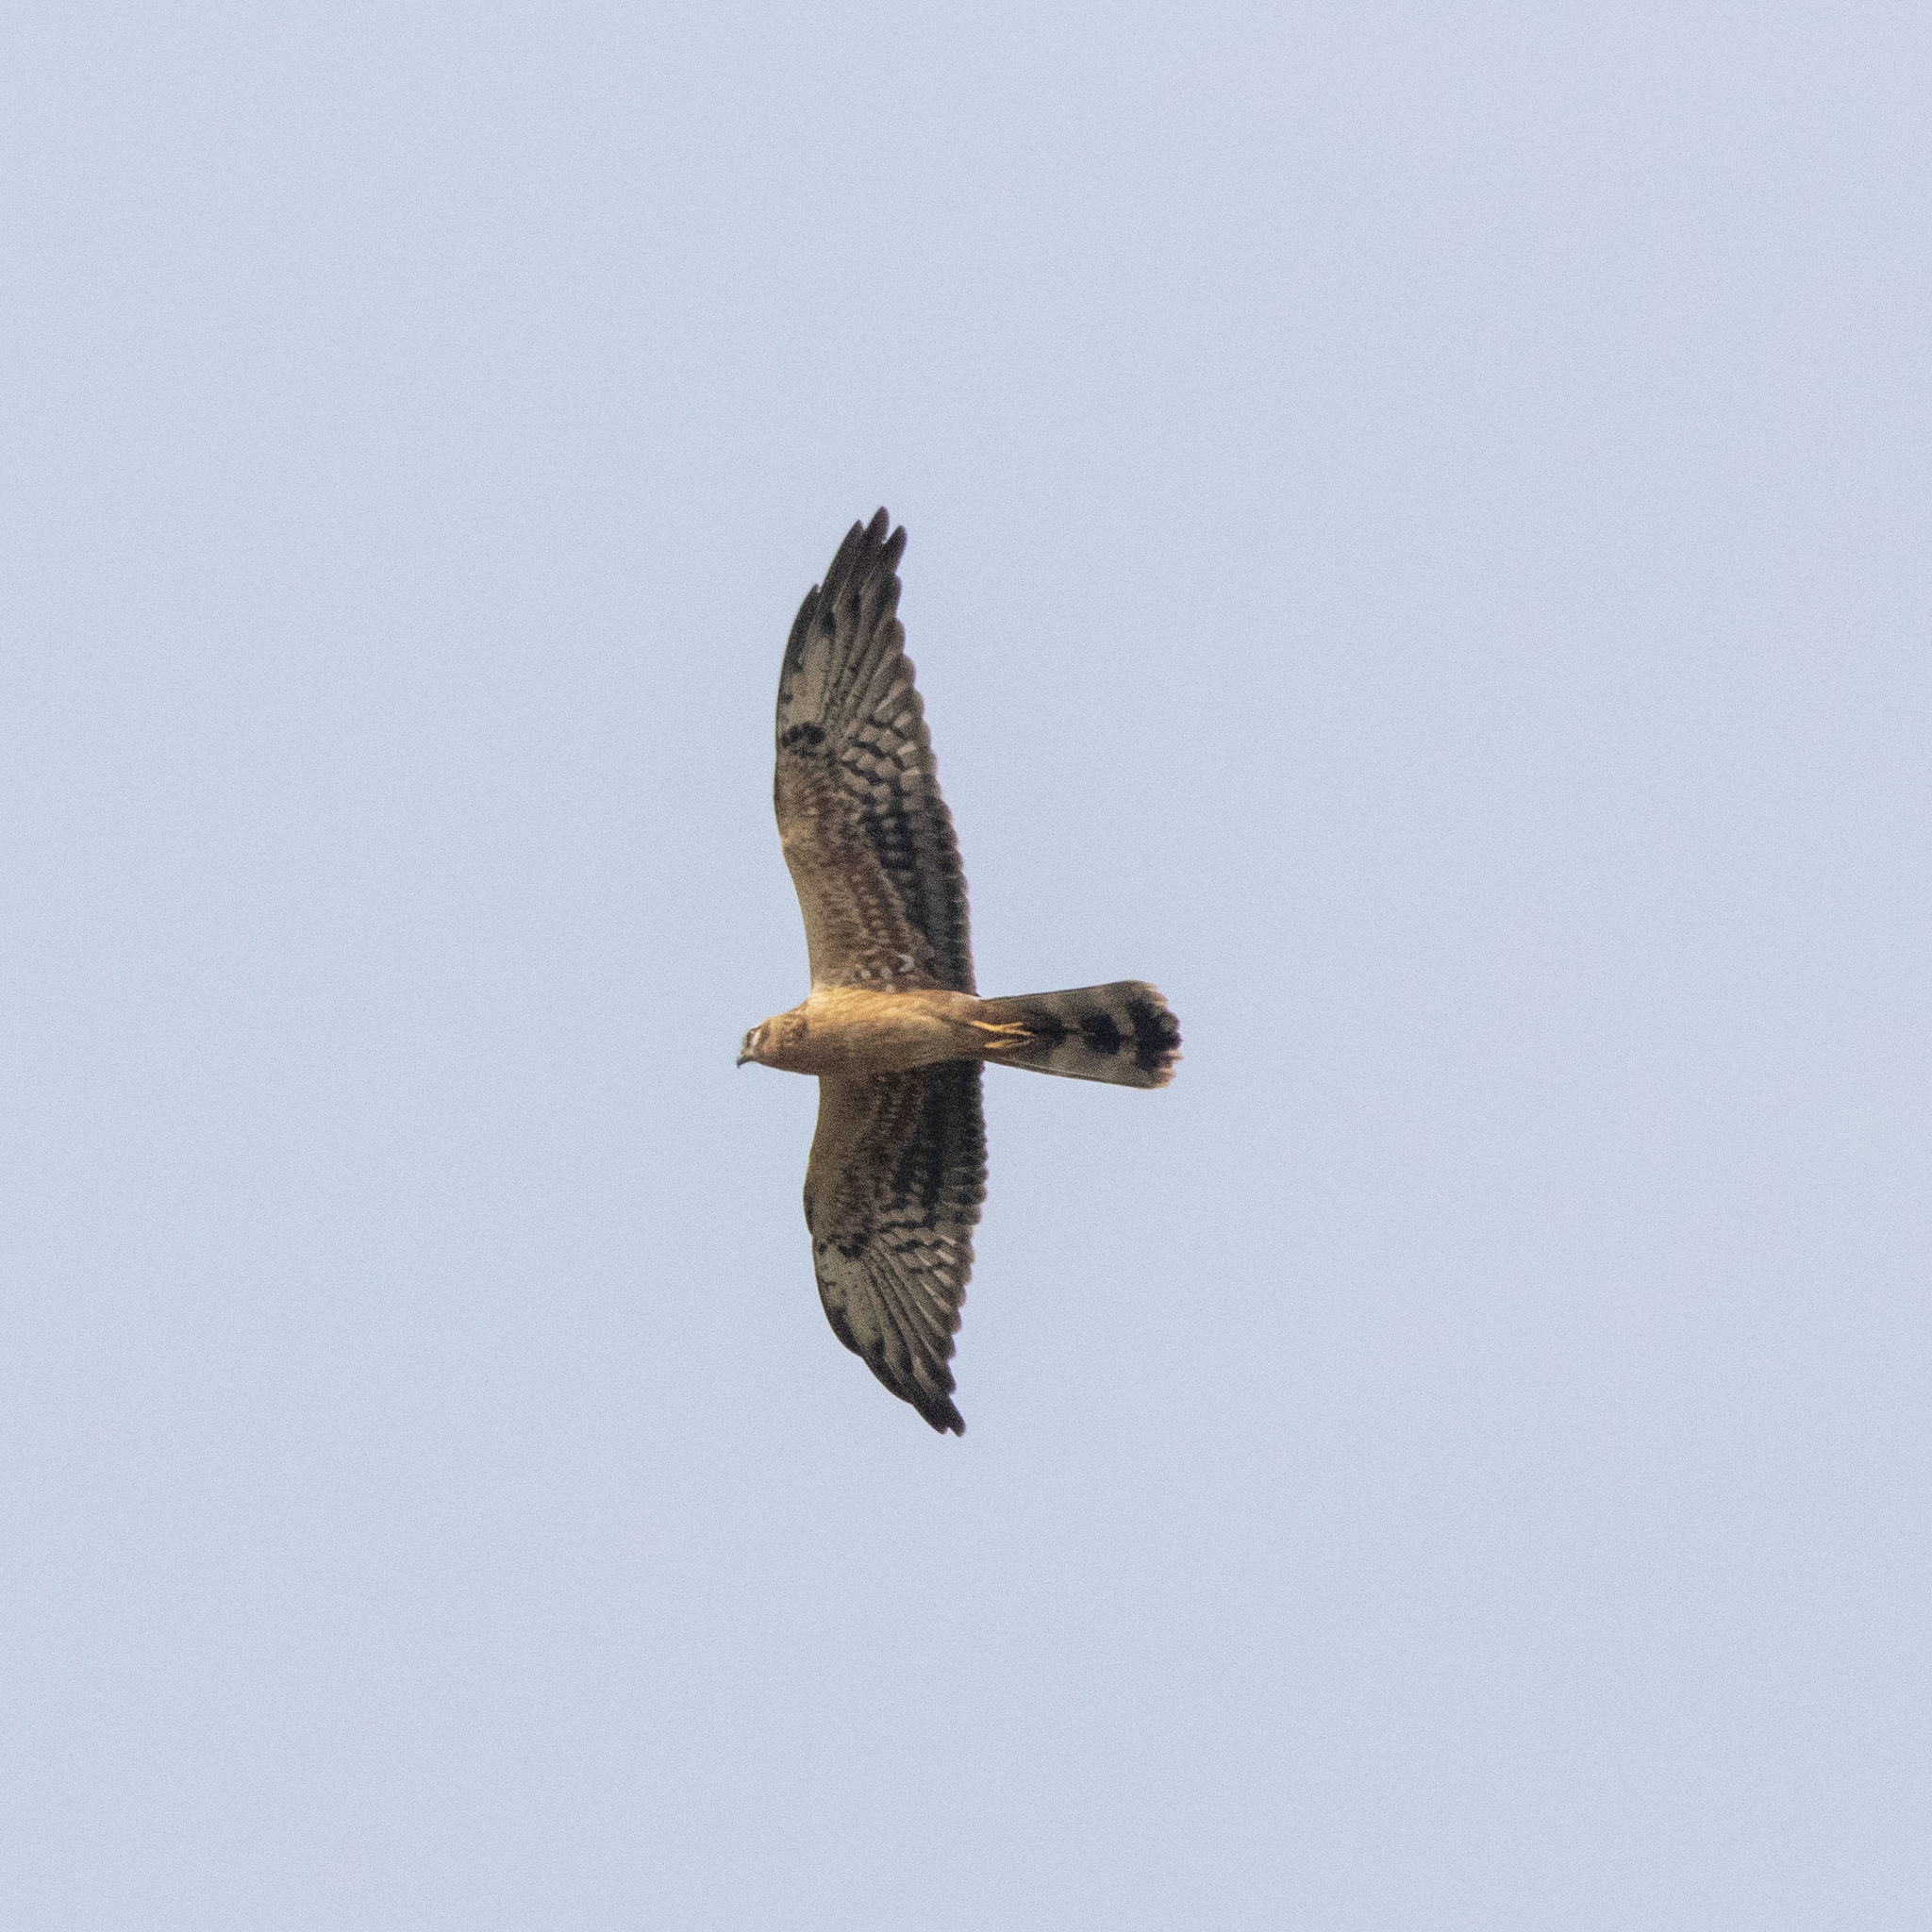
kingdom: Animalia
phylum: Chordata
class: Aves
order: Accipitriformes
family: Accipitridae
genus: Circus
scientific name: Circus pygargus
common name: Montagu's harrier
